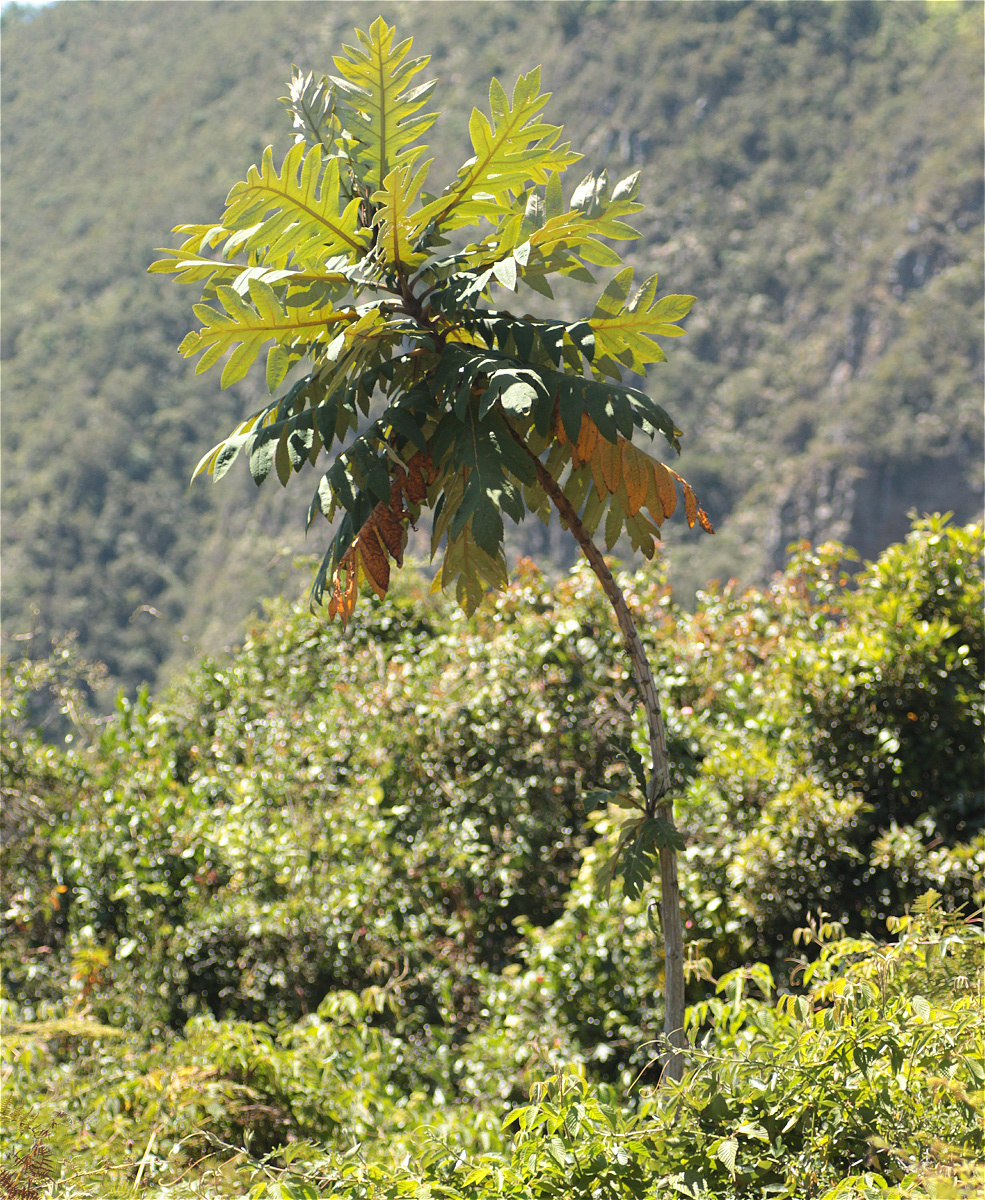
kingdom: Plantae
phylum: Tracheophyta
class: Magnoliopsida
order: Ranunculales
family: Papaveraceae
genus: Bocconia
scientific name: Bocconia frutescens
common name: Tree poppy
